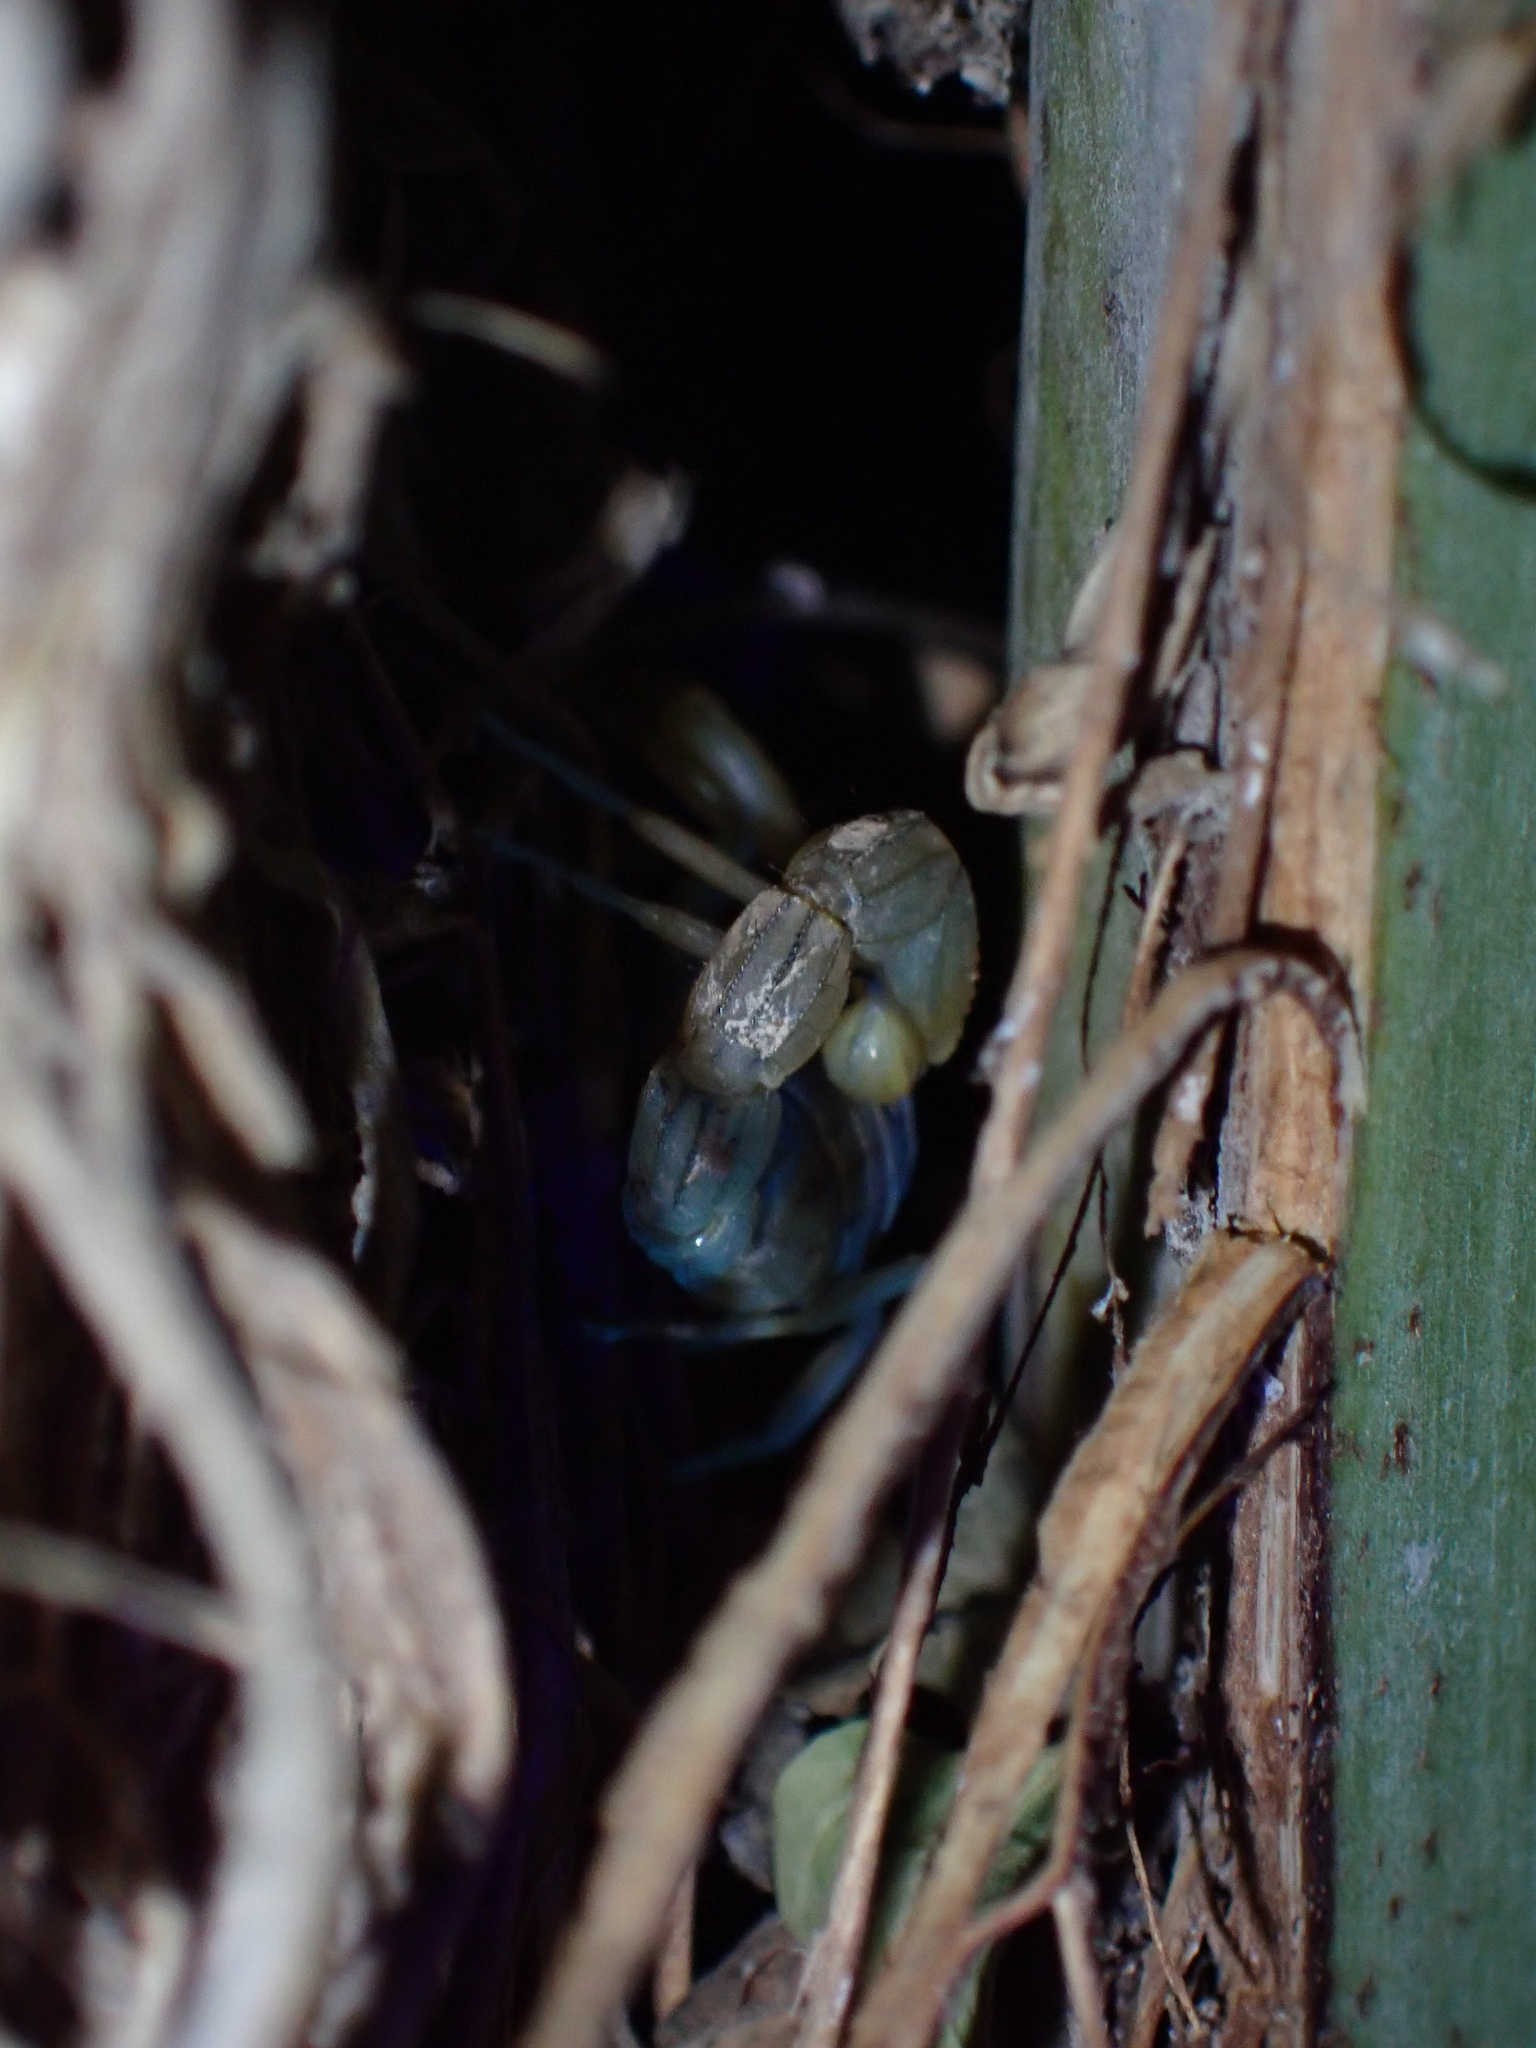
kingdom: Animalia
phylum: Arthropoda
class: Arachnida
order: Scorpiones
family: Buthidae
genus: Mesobuthus
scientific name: Mesobuthus mirshamsii
